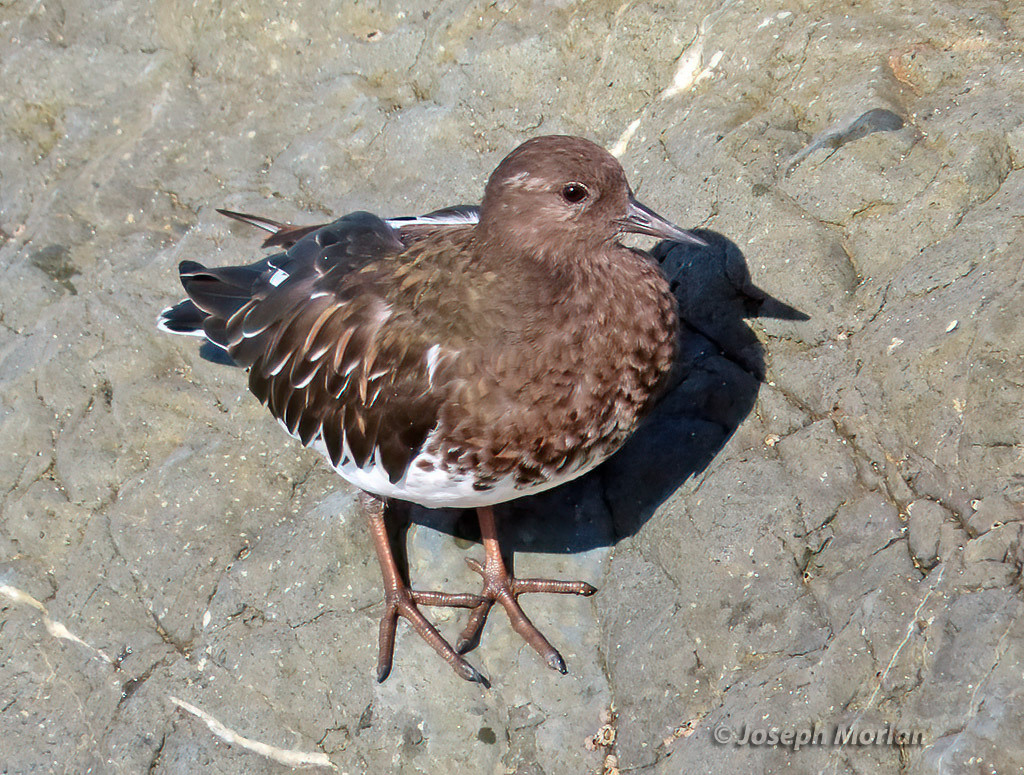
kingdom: Animalia
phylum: Chordata
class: Aves
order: Charadriiformes
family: Scolopacidae
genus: Arenaria
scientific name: Arenaria melanocephala
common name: Black turnstone
